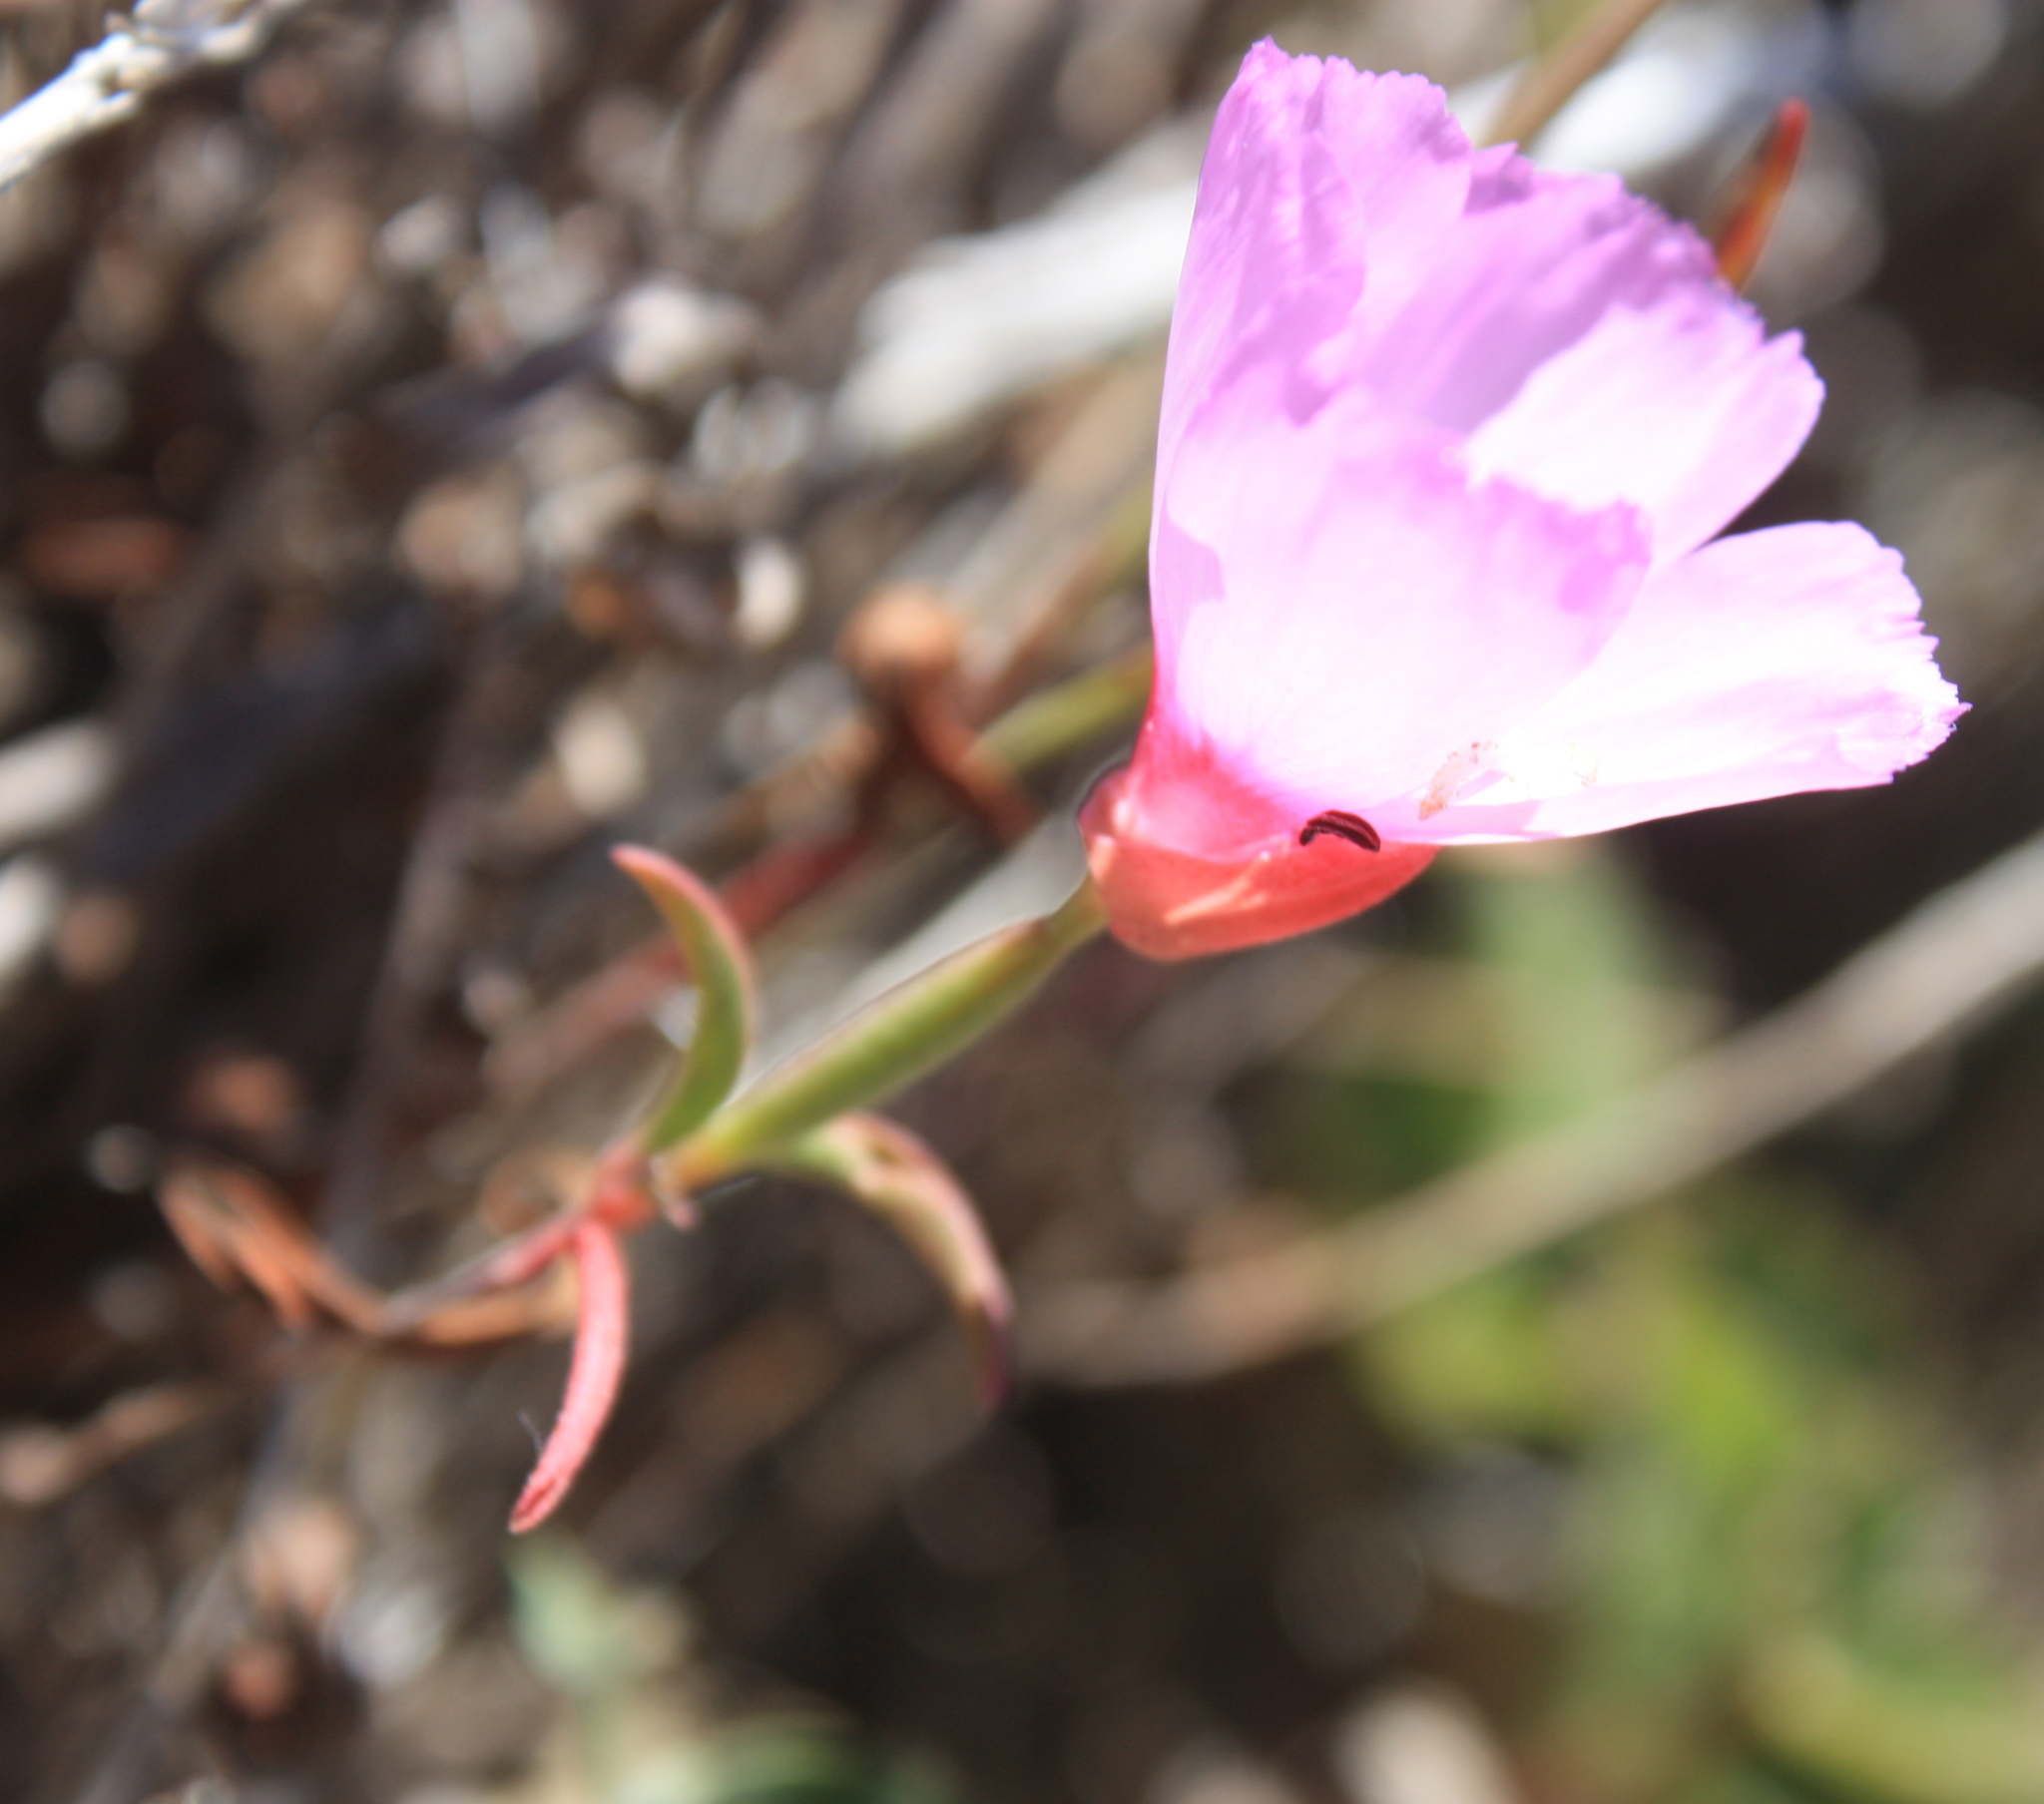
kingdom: Plantae
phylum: Tracheophyta
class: Magnoliopsida
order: Myrtales
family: Onagraceae
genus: Clarkia
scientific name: Clarkia rubicunda
